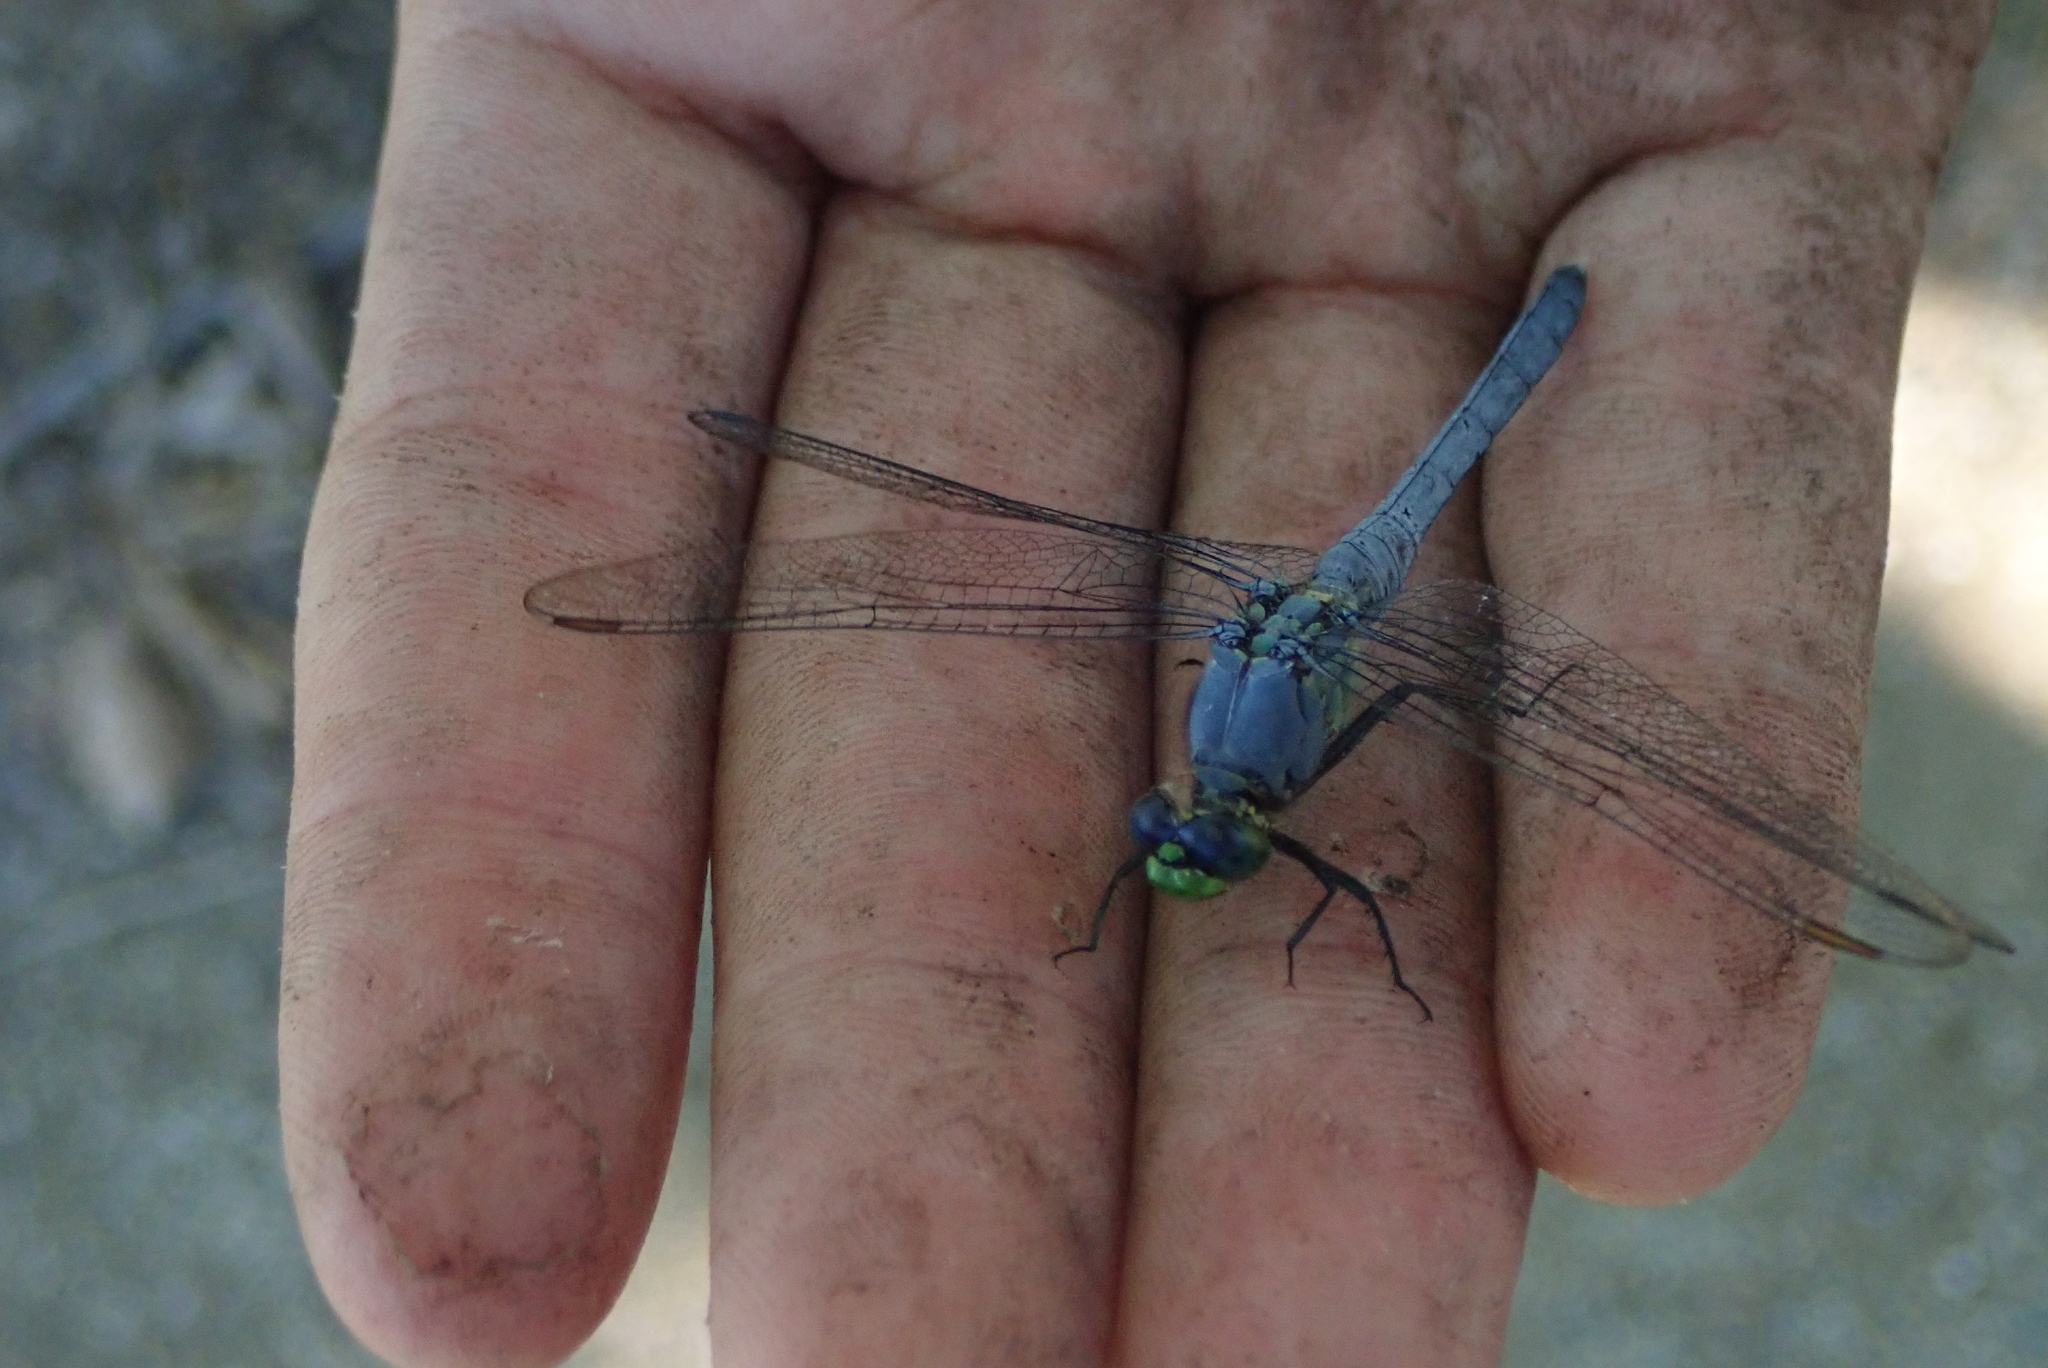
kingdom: Animalia
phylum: Arthropoda
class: Insecta
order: Odonata
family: Libellulidae
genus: Erythemis
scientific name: Erythemis simplicicollis
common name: Eastern pondhawk
